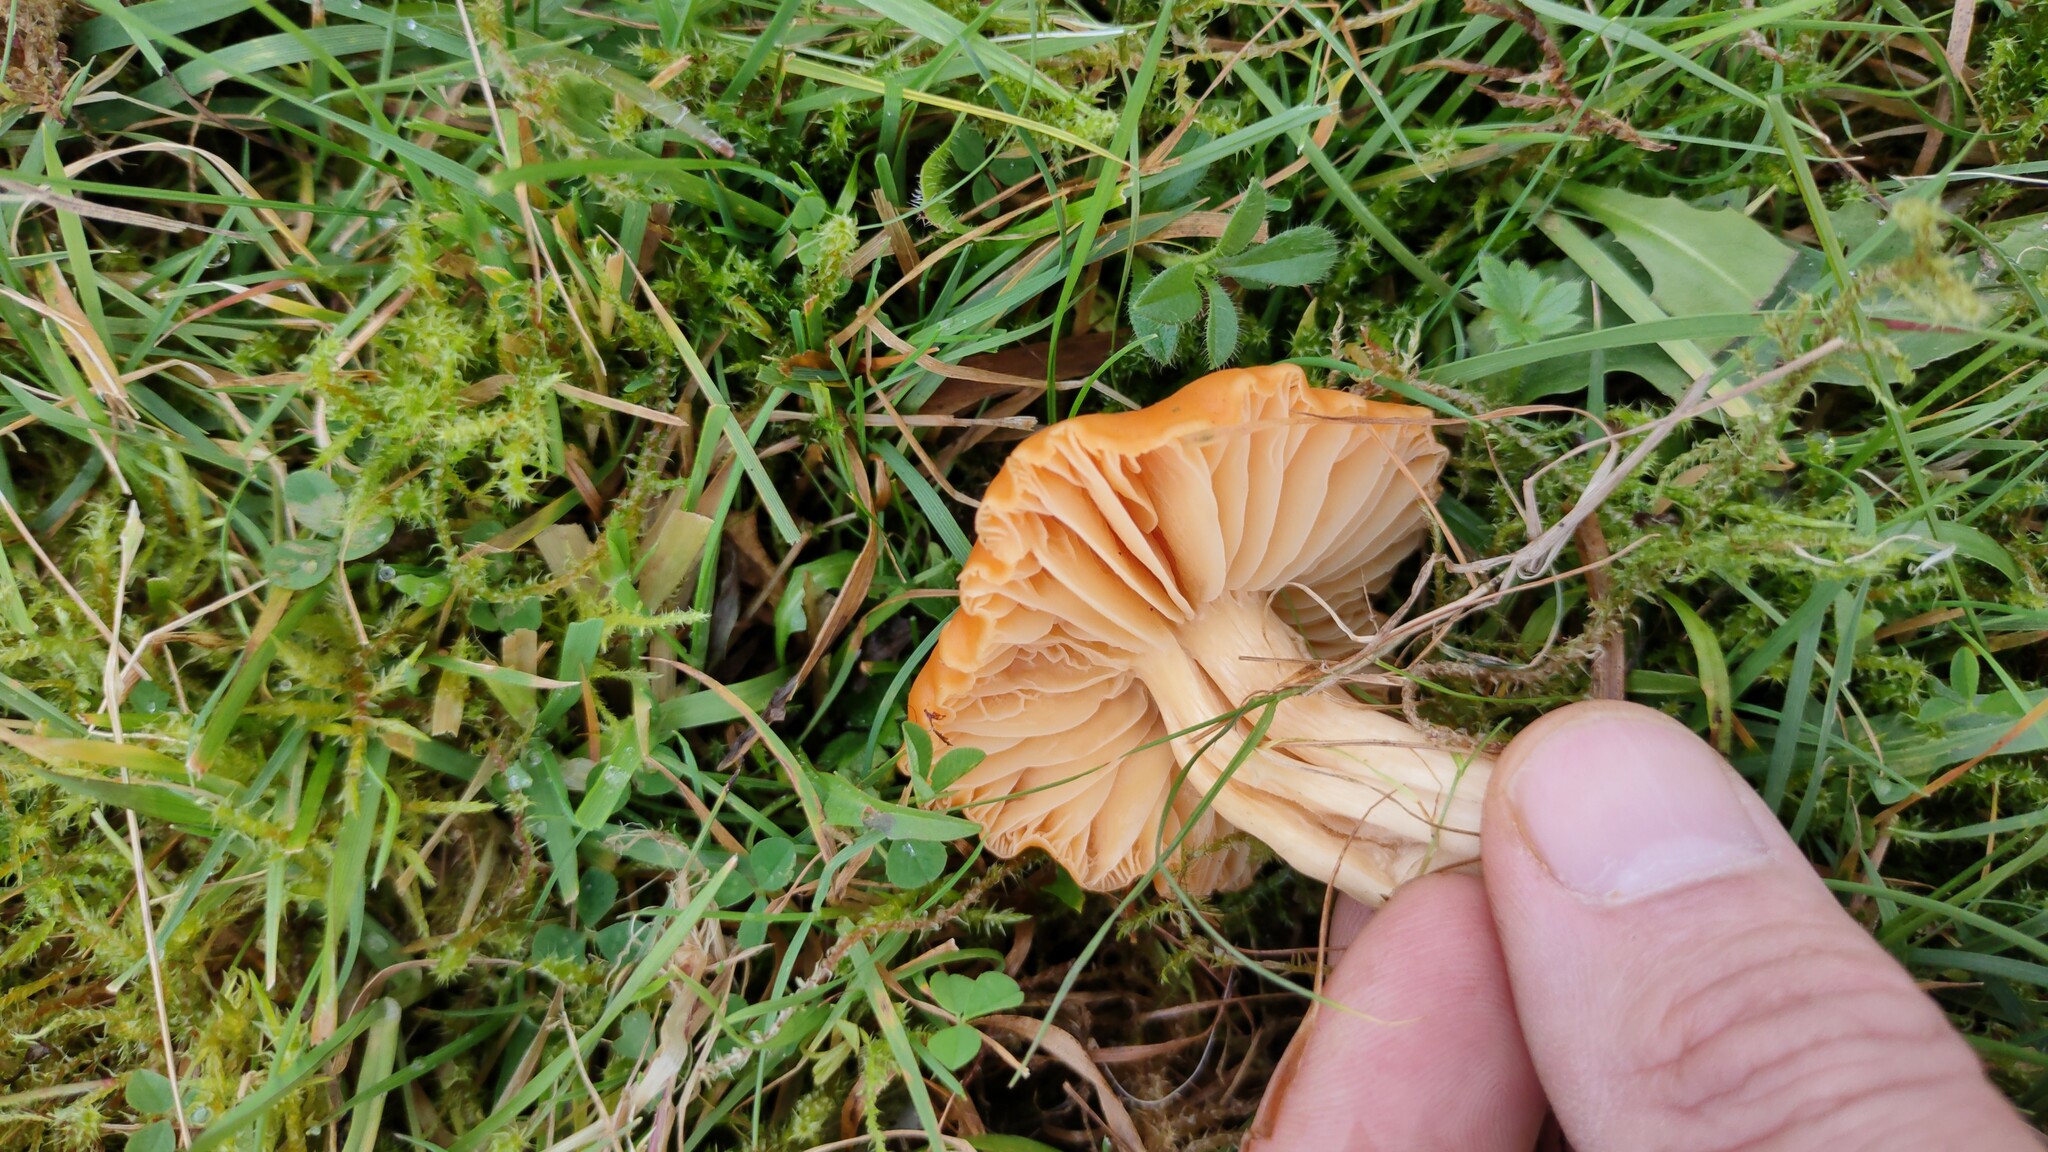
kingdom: Fungi
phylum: Basidiomycota
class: Agaricomycetes
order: Agaricales
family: Hygrophoraceae
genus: Cuphophyllus
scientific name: Cuphophyllus pratensis
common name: Meadow waxcap
